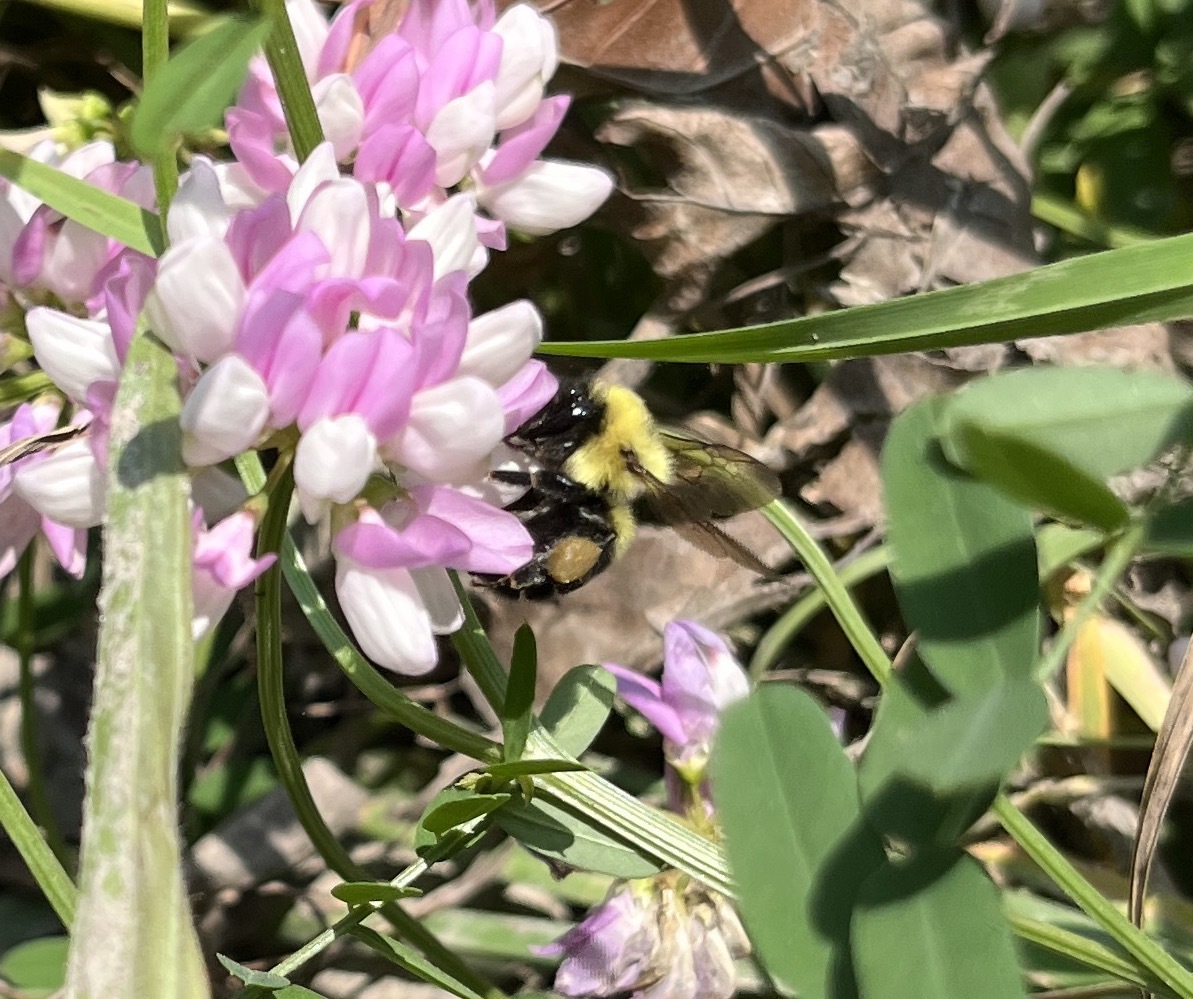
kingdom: Animalia
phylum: Arthropoda
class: Insecta
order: Hymenoptera
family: Apidae
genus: Bombus
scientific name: Bombus bimaculatus
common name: Two-spotted bumble bee
